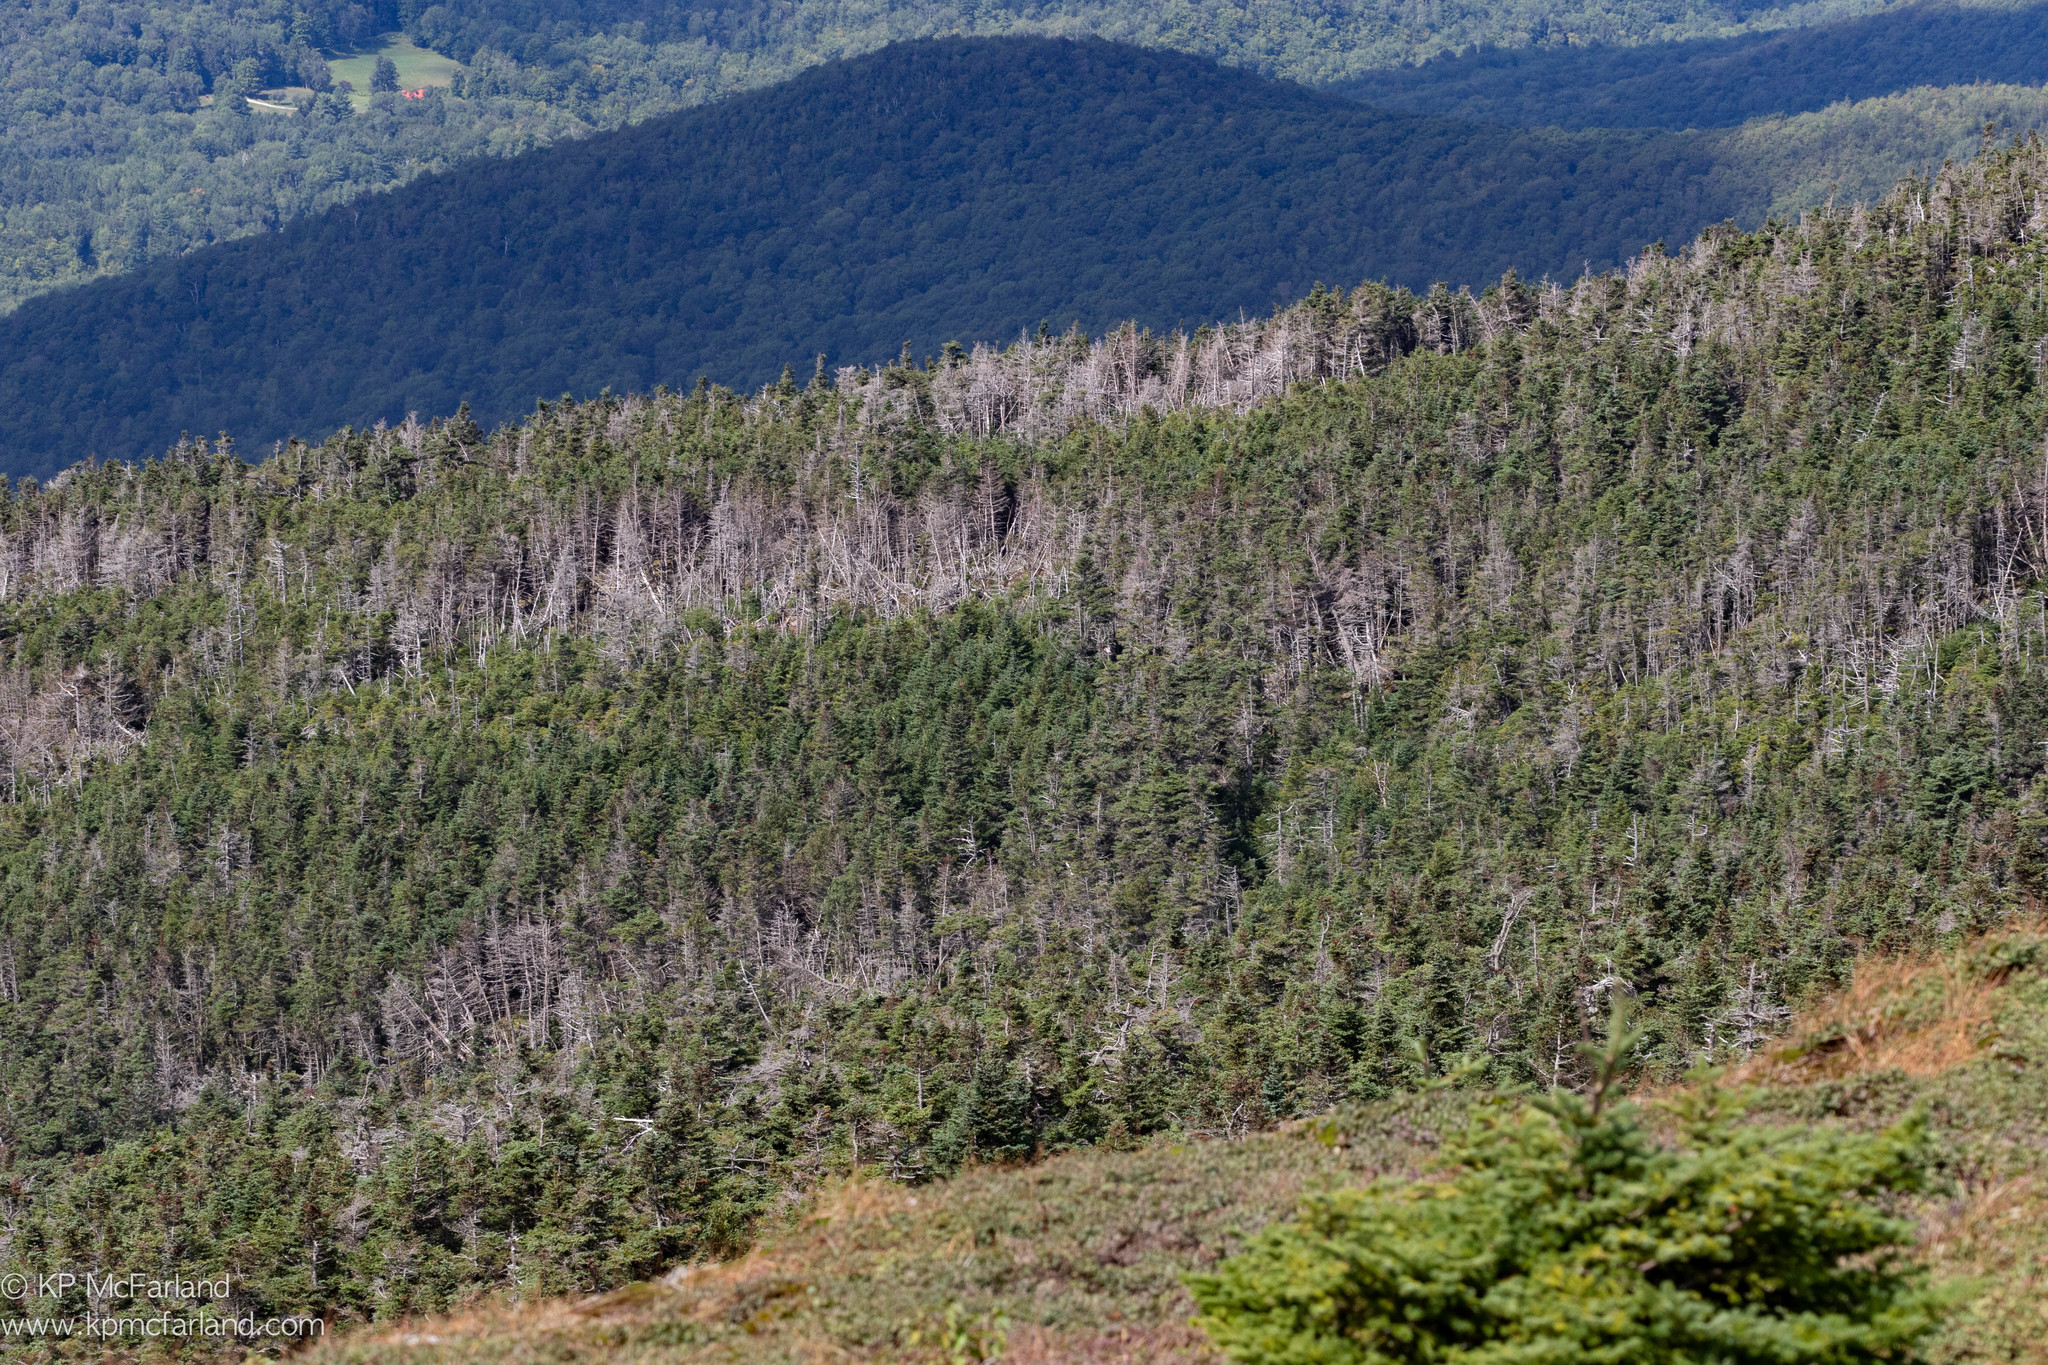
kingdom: Plantae
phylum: Tracheophyta
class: Pinopsida
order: Pinales
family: Pinaceae
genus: Abies
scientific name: Abies balsamea
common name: Balsam fir
